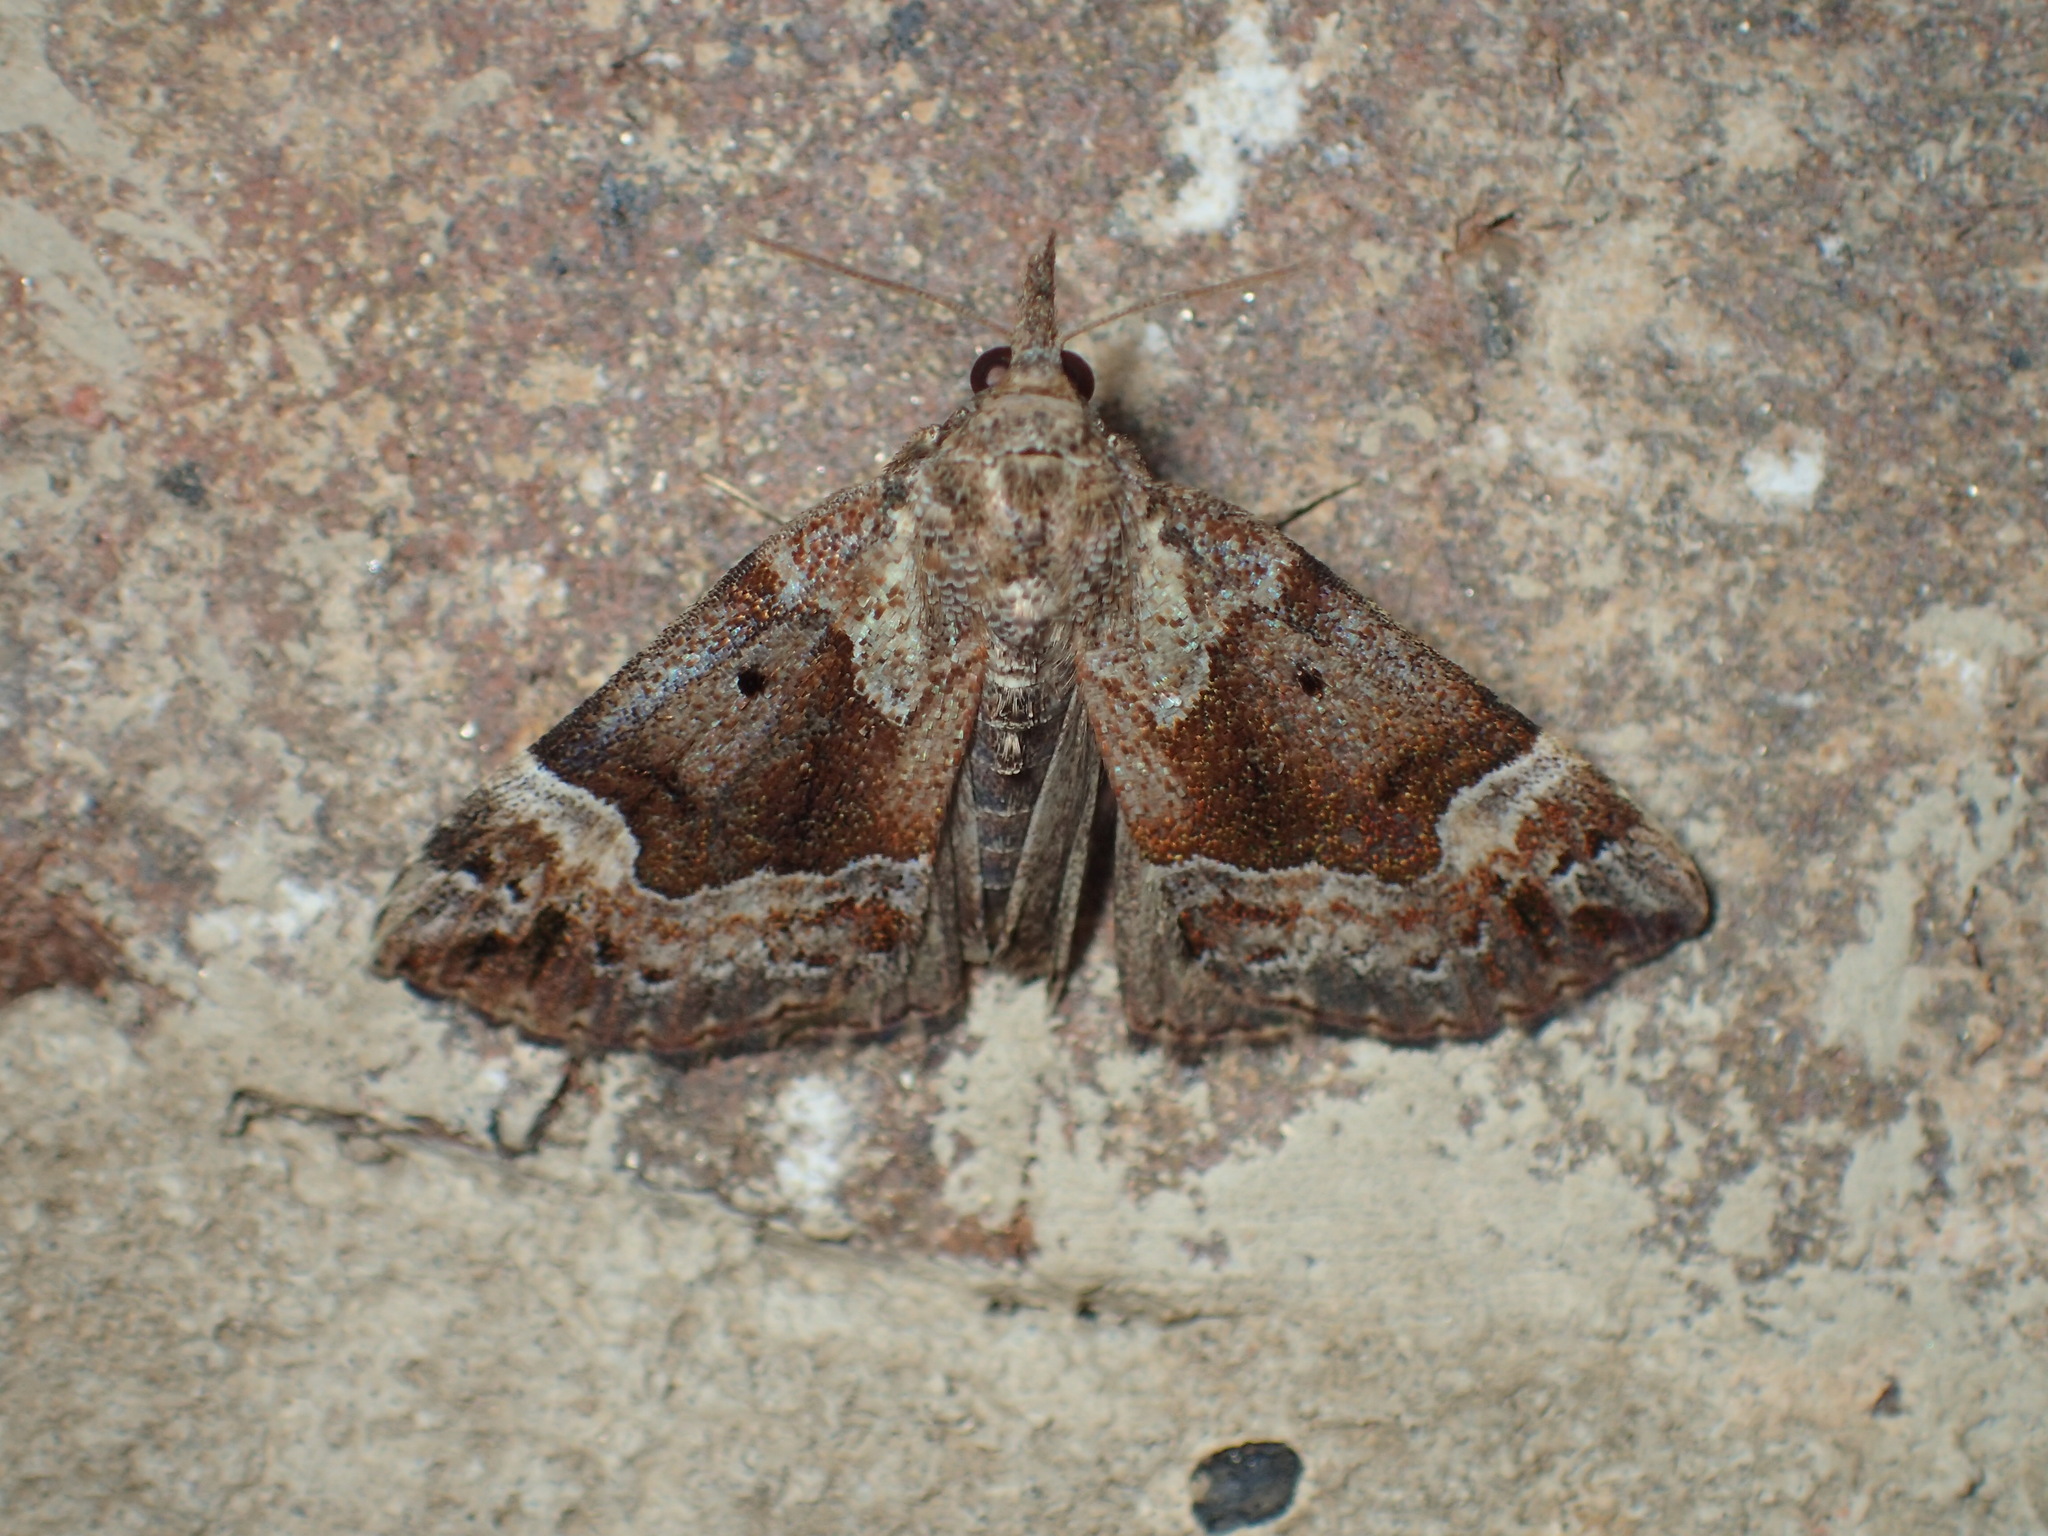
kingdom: Animalia
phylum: Arthropoda
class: Insecta
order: Lepidoptera
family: Erebidae
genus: Hypena
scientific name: Hypena palparia
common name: Mottled bomolocha moth
